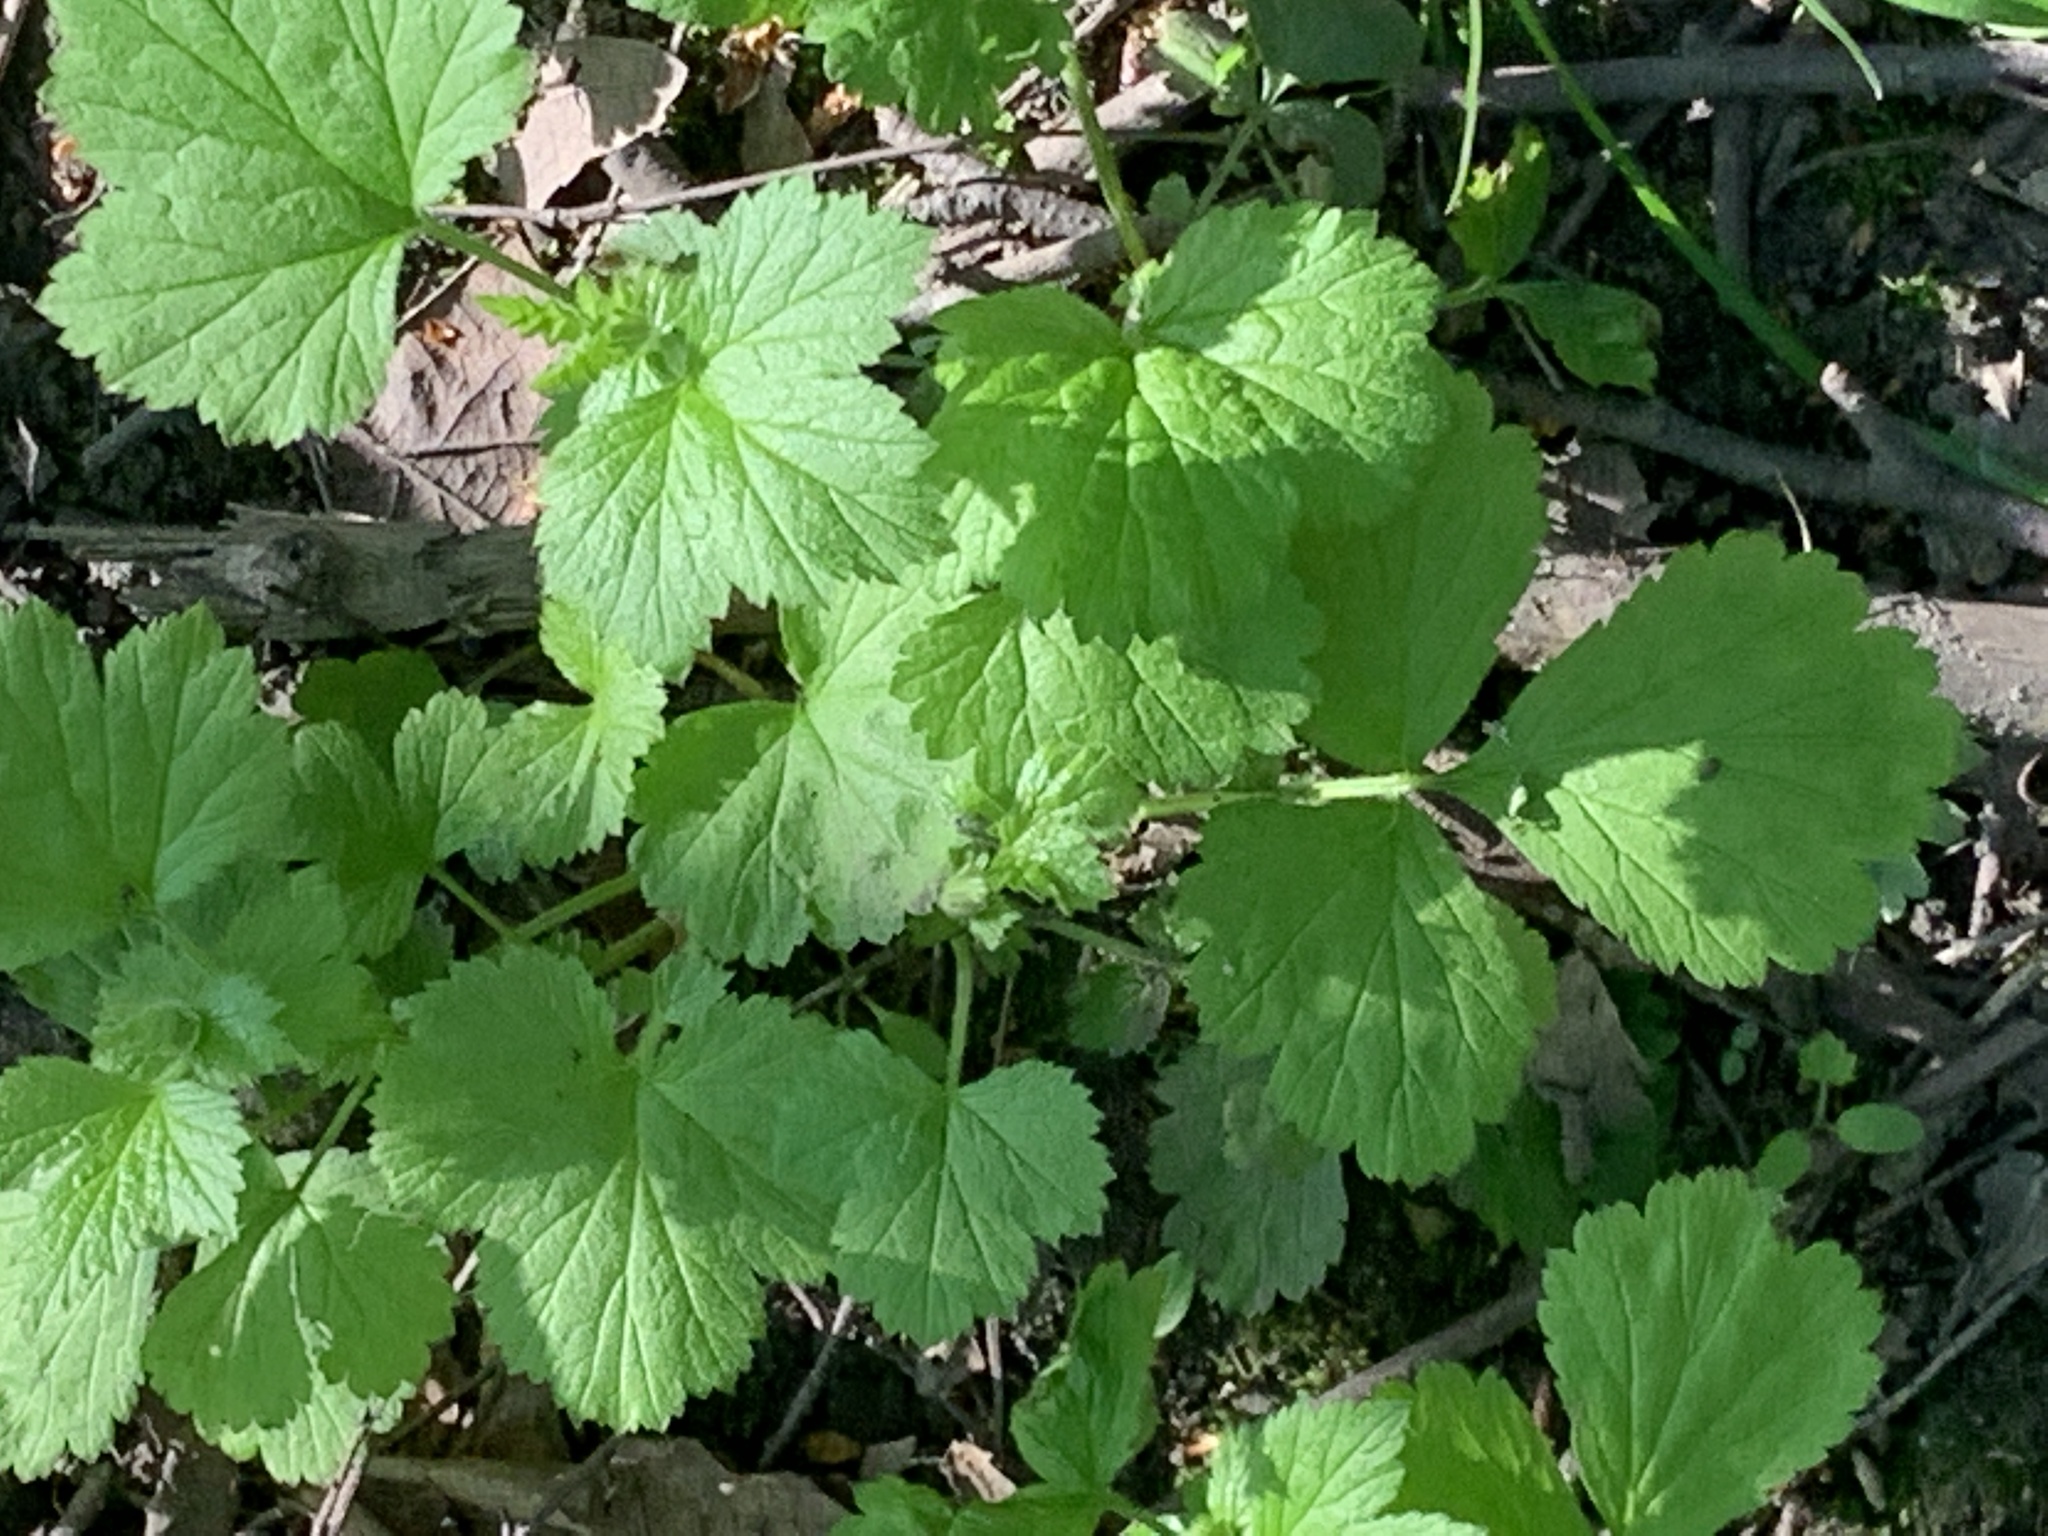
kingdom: Plantae
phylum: Tracheophyta
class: Magnoliopsida
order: Rosales
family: Rosaceae
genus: Geum
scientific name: Geum urbanum
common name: Wood avens
